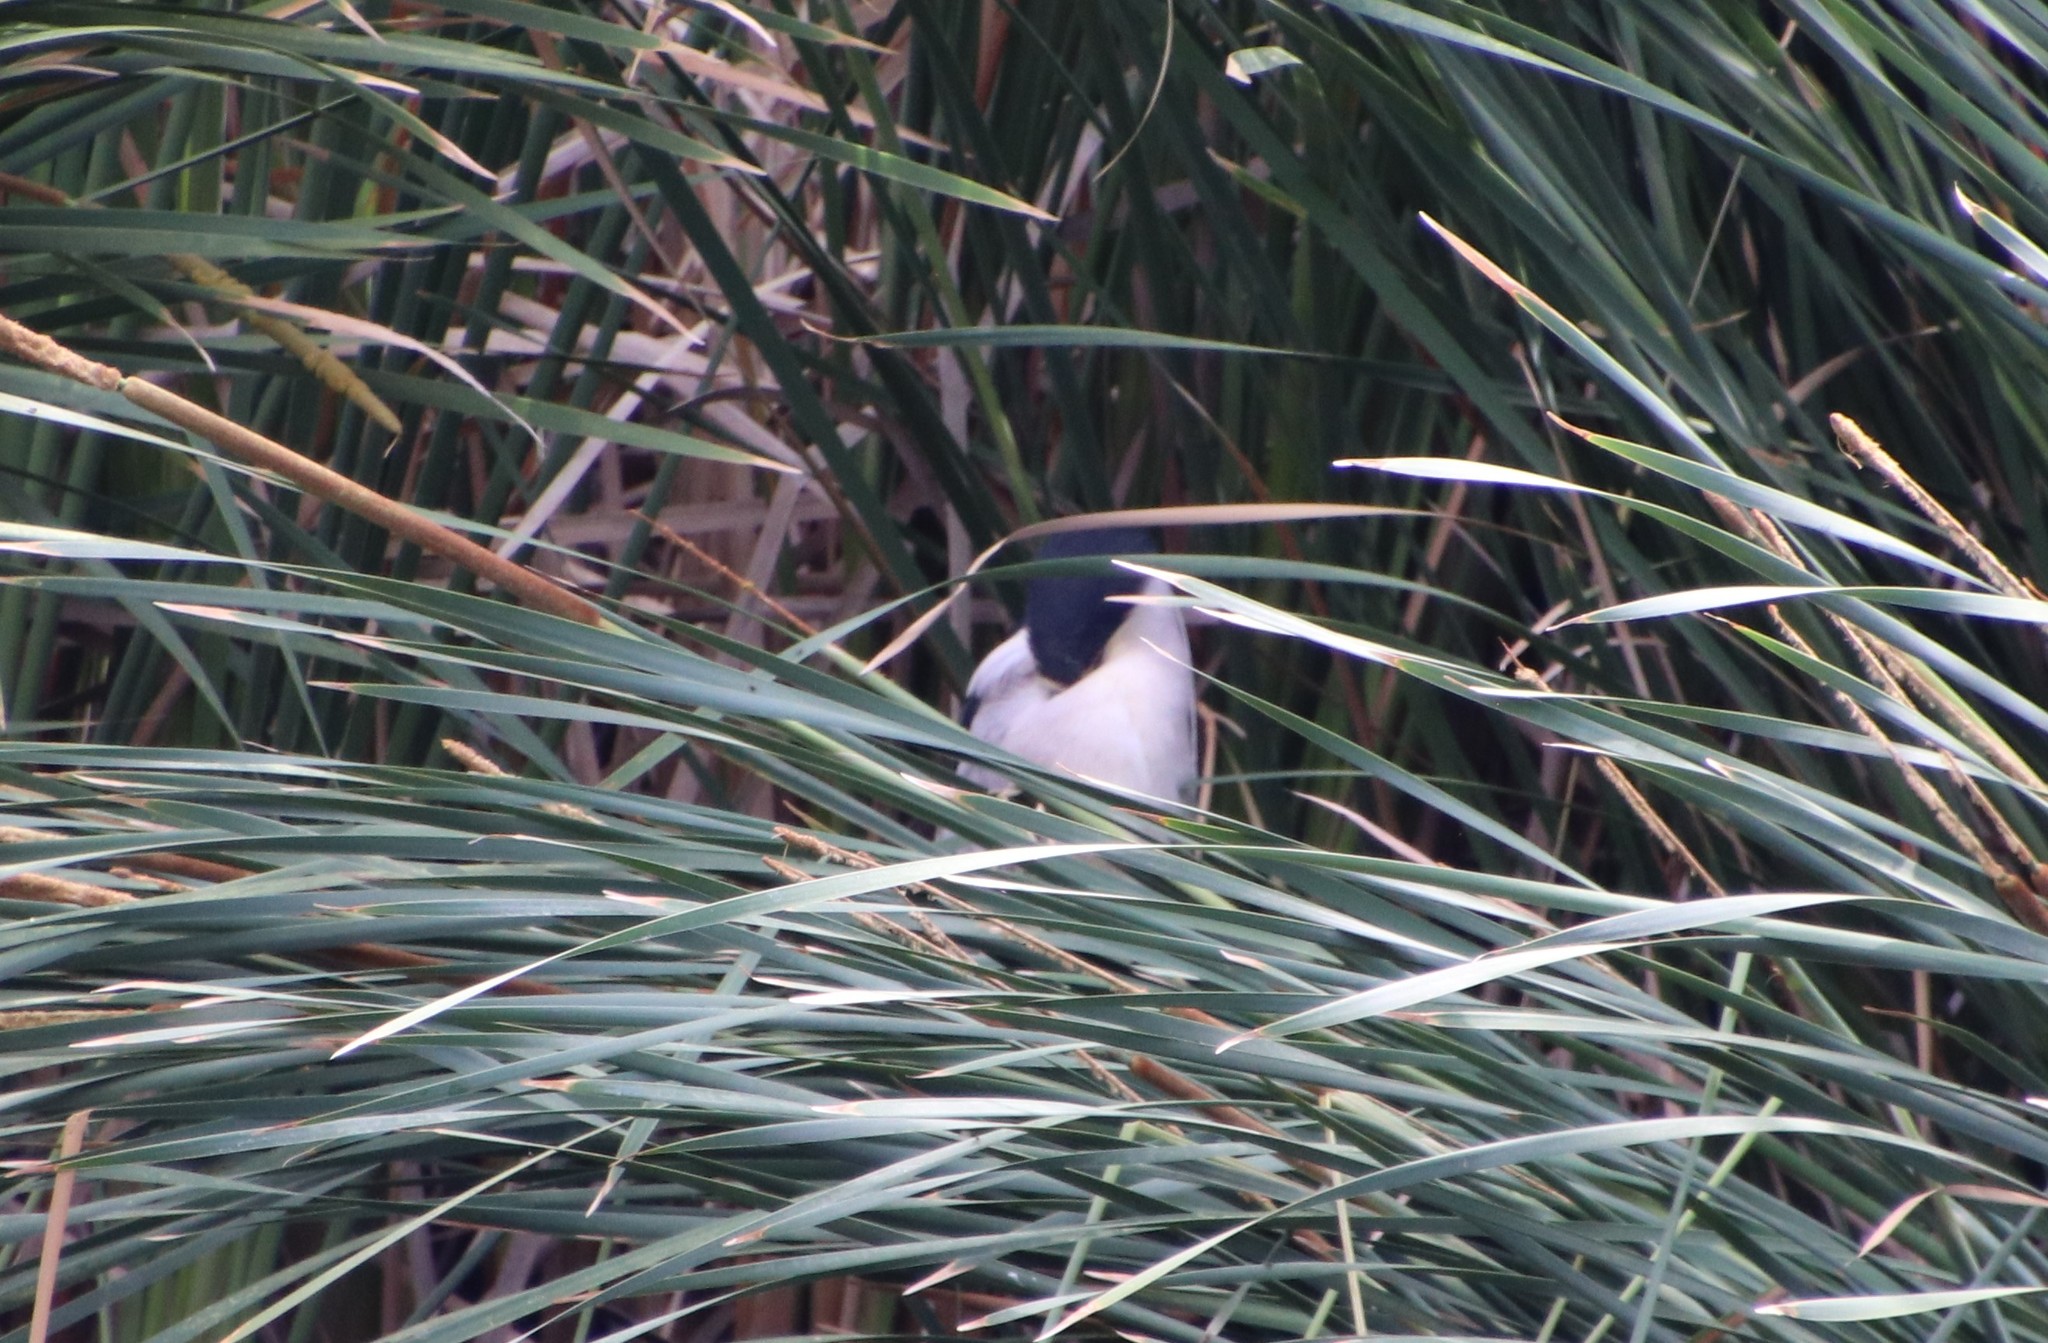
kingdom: Animalia
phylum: Chordata
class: Aves
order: Pelecaniformes
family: Ardeidae
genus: Nycticorax
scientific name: Nycticorax nycticorax
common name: Black-crowned night heron
